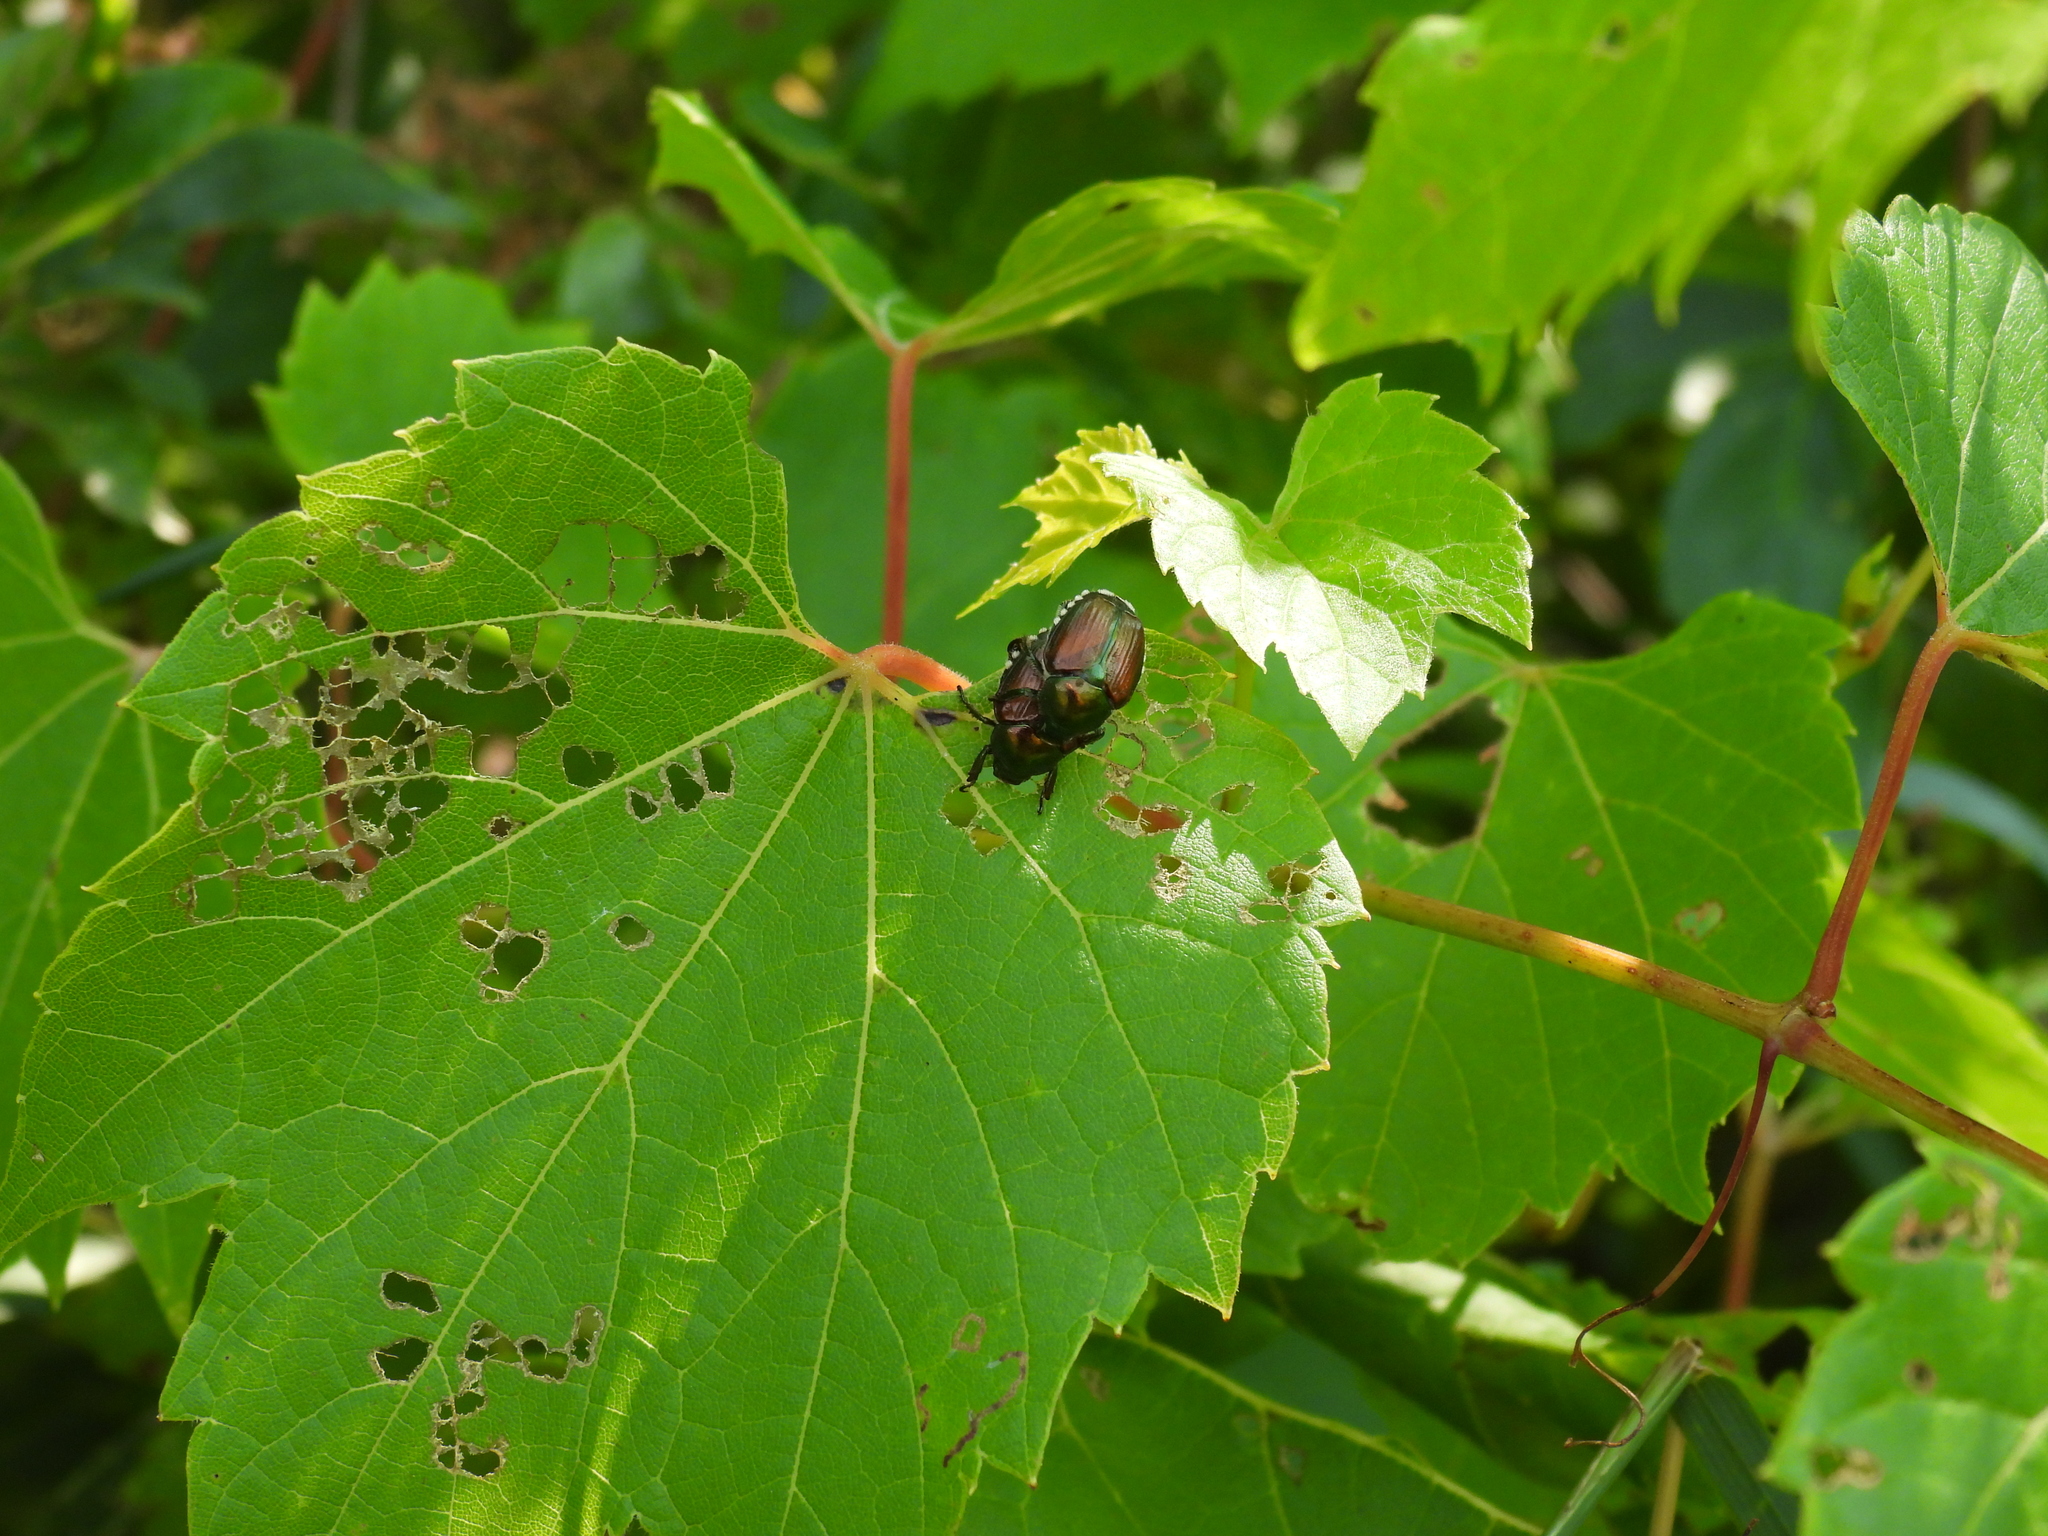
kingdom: Animalia
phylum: Arthropoda
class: Insecta
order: Coleoptera
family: Scarabaeidae
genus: Popillia
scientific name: Popillia japonica
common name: Japanese beetle
